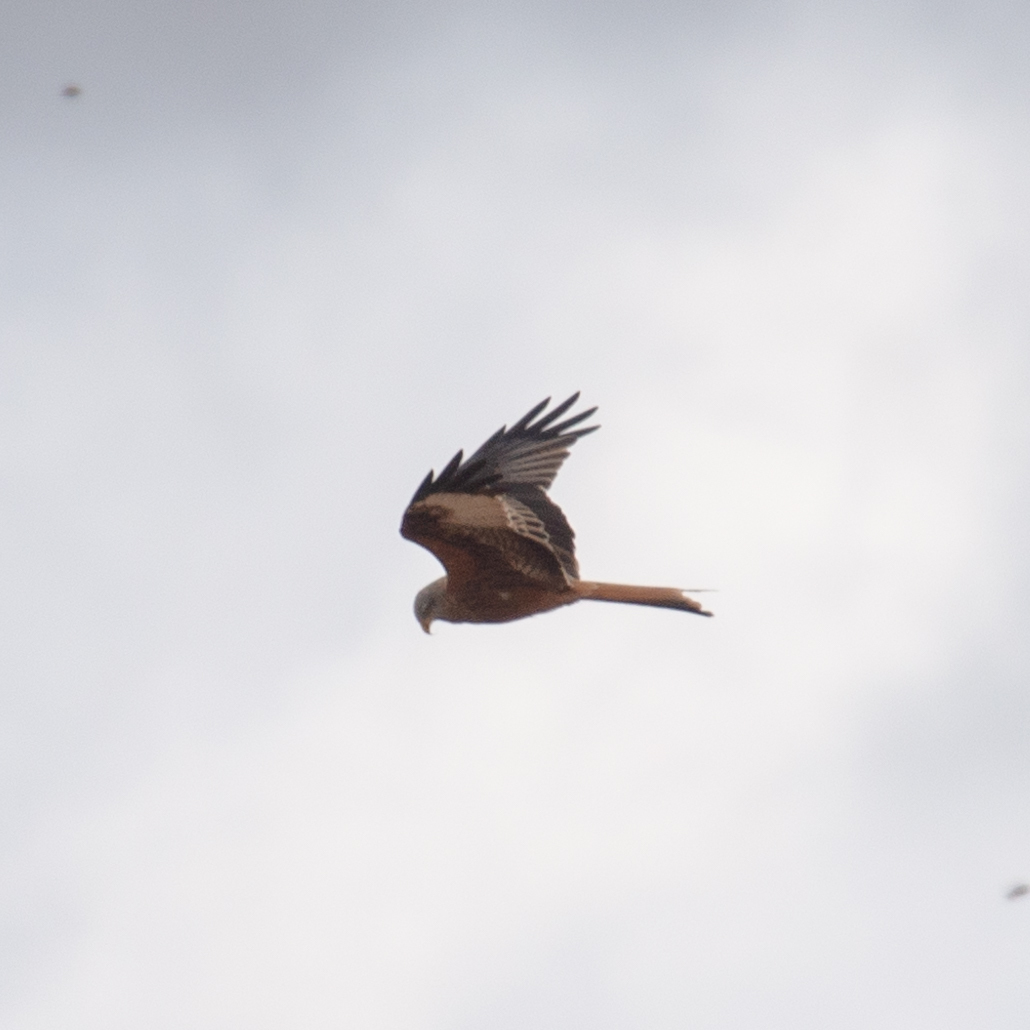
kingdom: Animalia
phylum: Chordata
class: Aves
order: Accipitriformes
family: Accipitridae
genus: Milvus
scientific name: Milvus milvus
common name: Red kite
